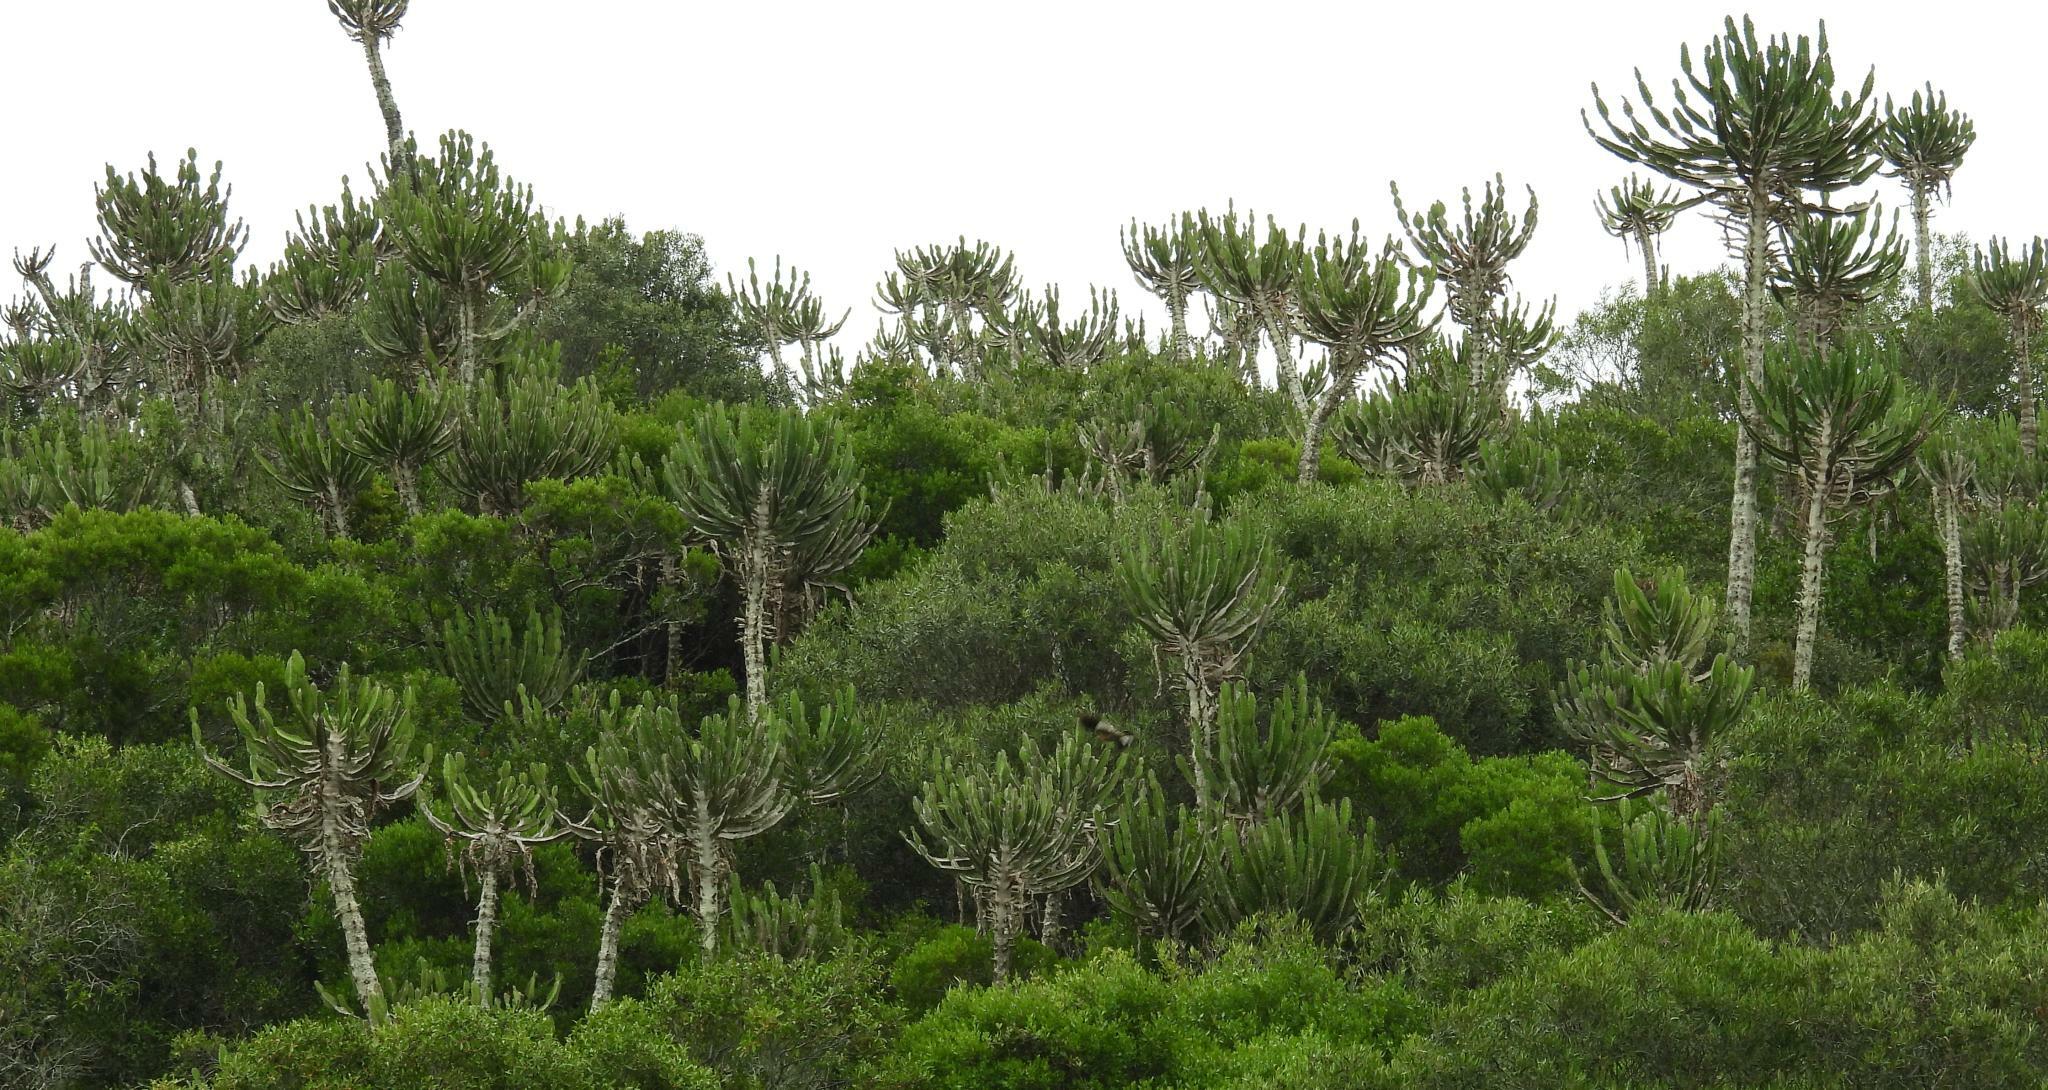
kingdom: Plantae
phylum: Tracheophyta
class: Magnoliopsida
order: Malpighiales
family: Euphorbiaceae
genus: Euphorbia
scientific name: Euphorbia triangularis
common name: Chandelier tree
